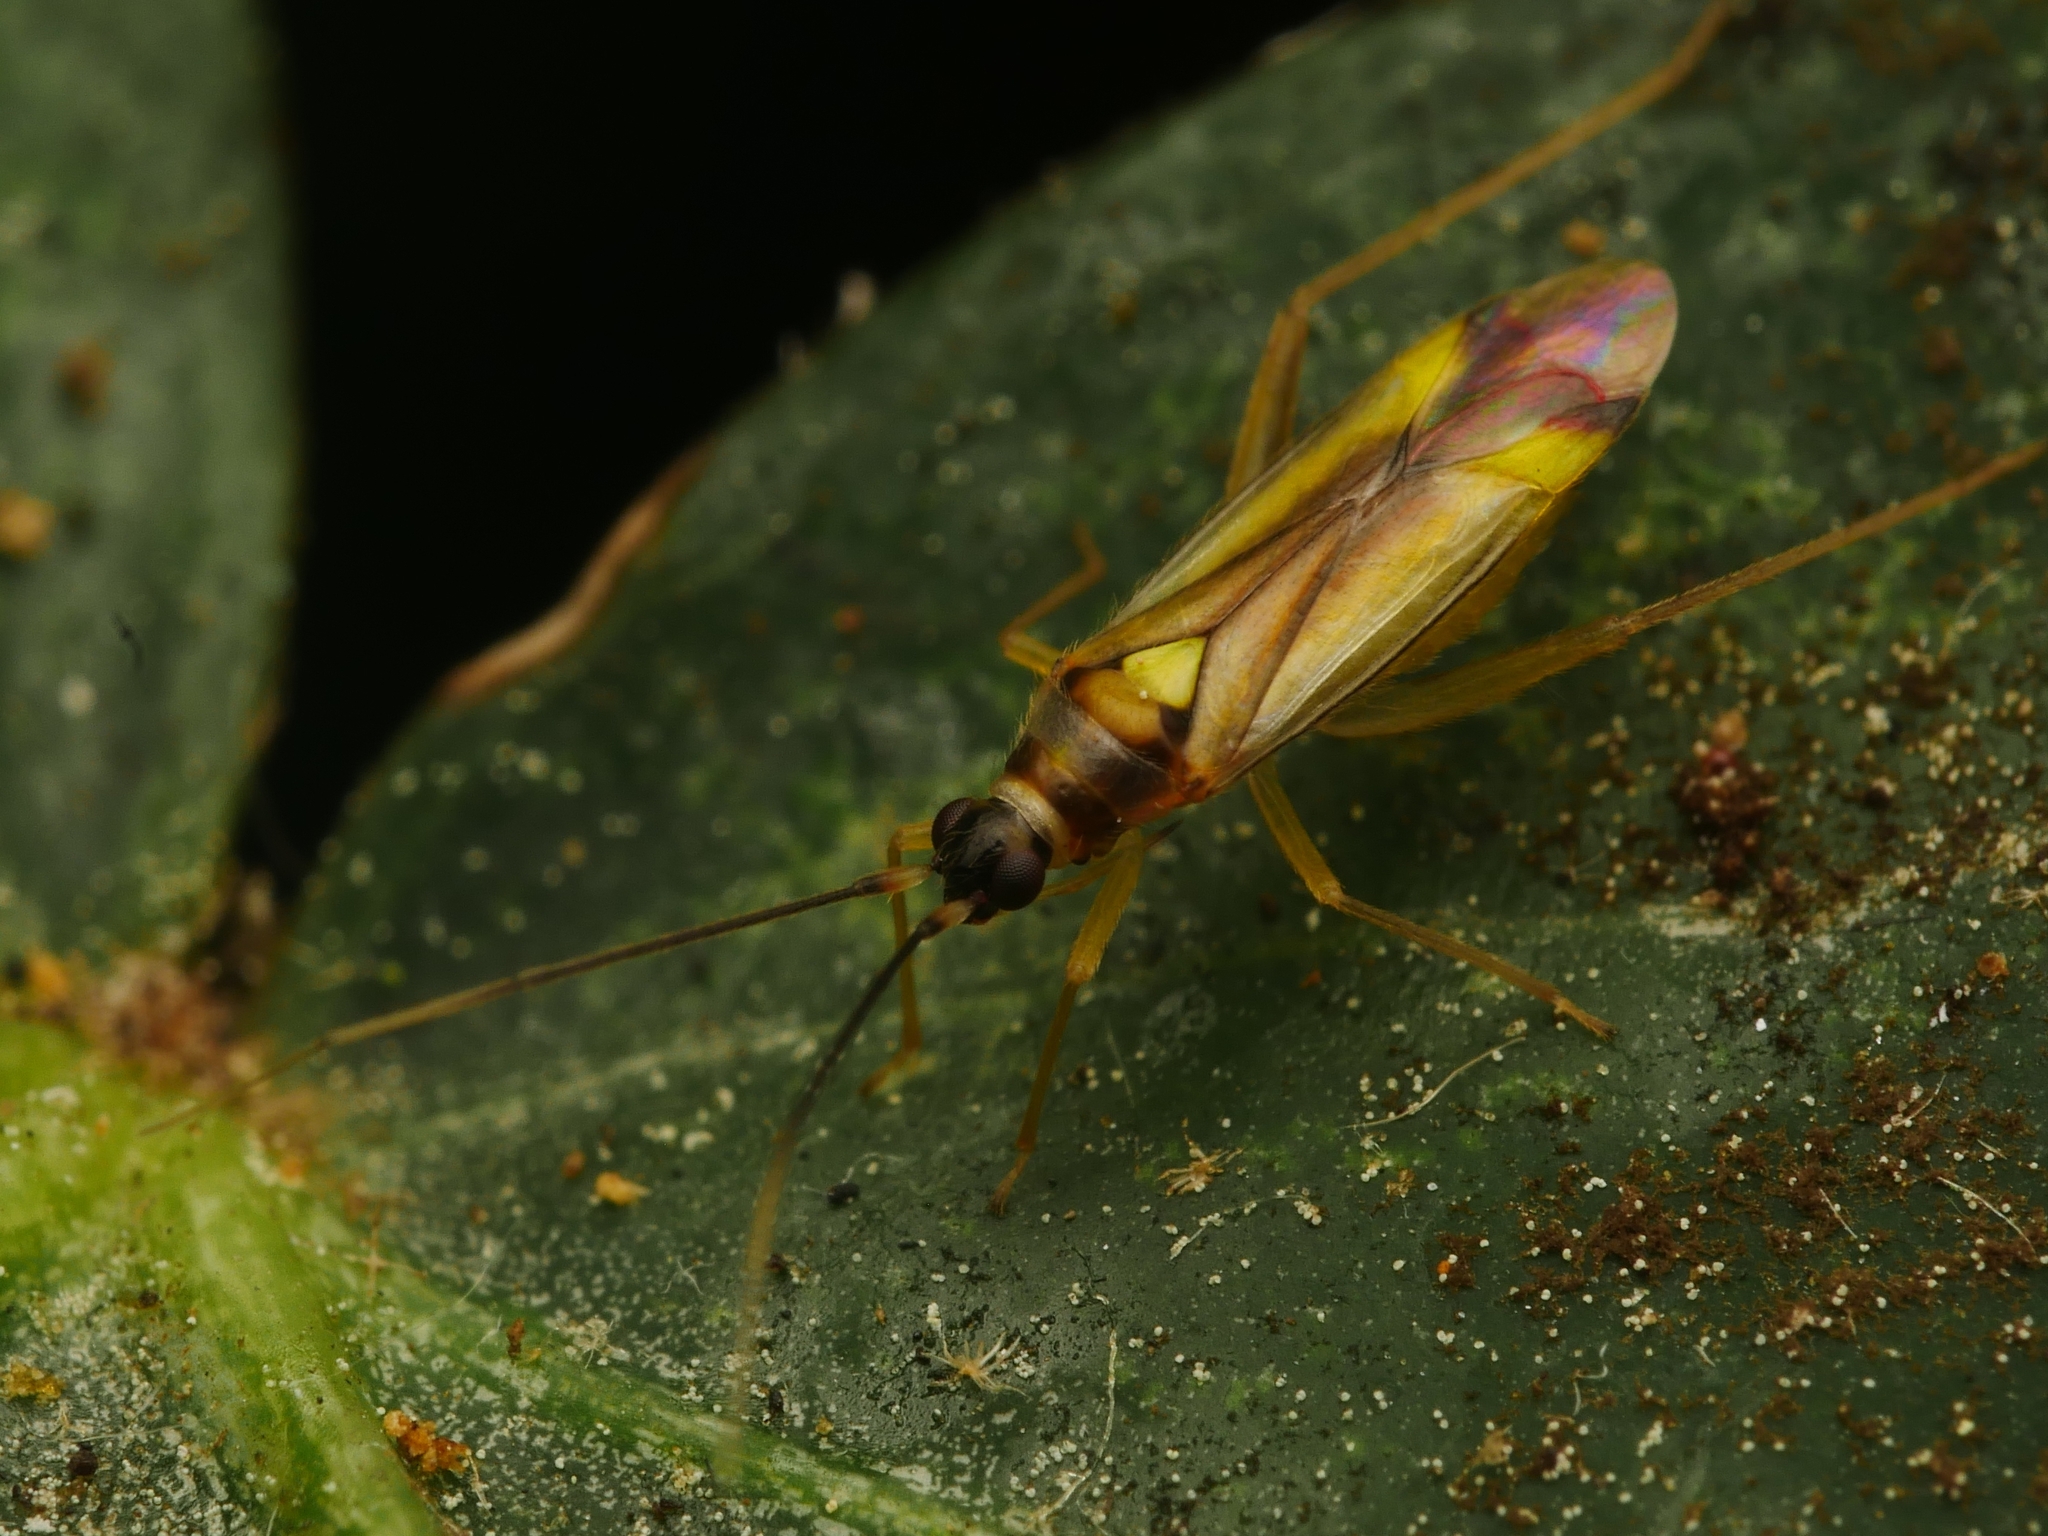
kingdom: Animalia
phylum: Arthropoda
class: Insecta
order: Hemiptera
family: Miridae
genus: Campyloneura
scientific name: Campyloneura virgula
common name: Predatory bug
